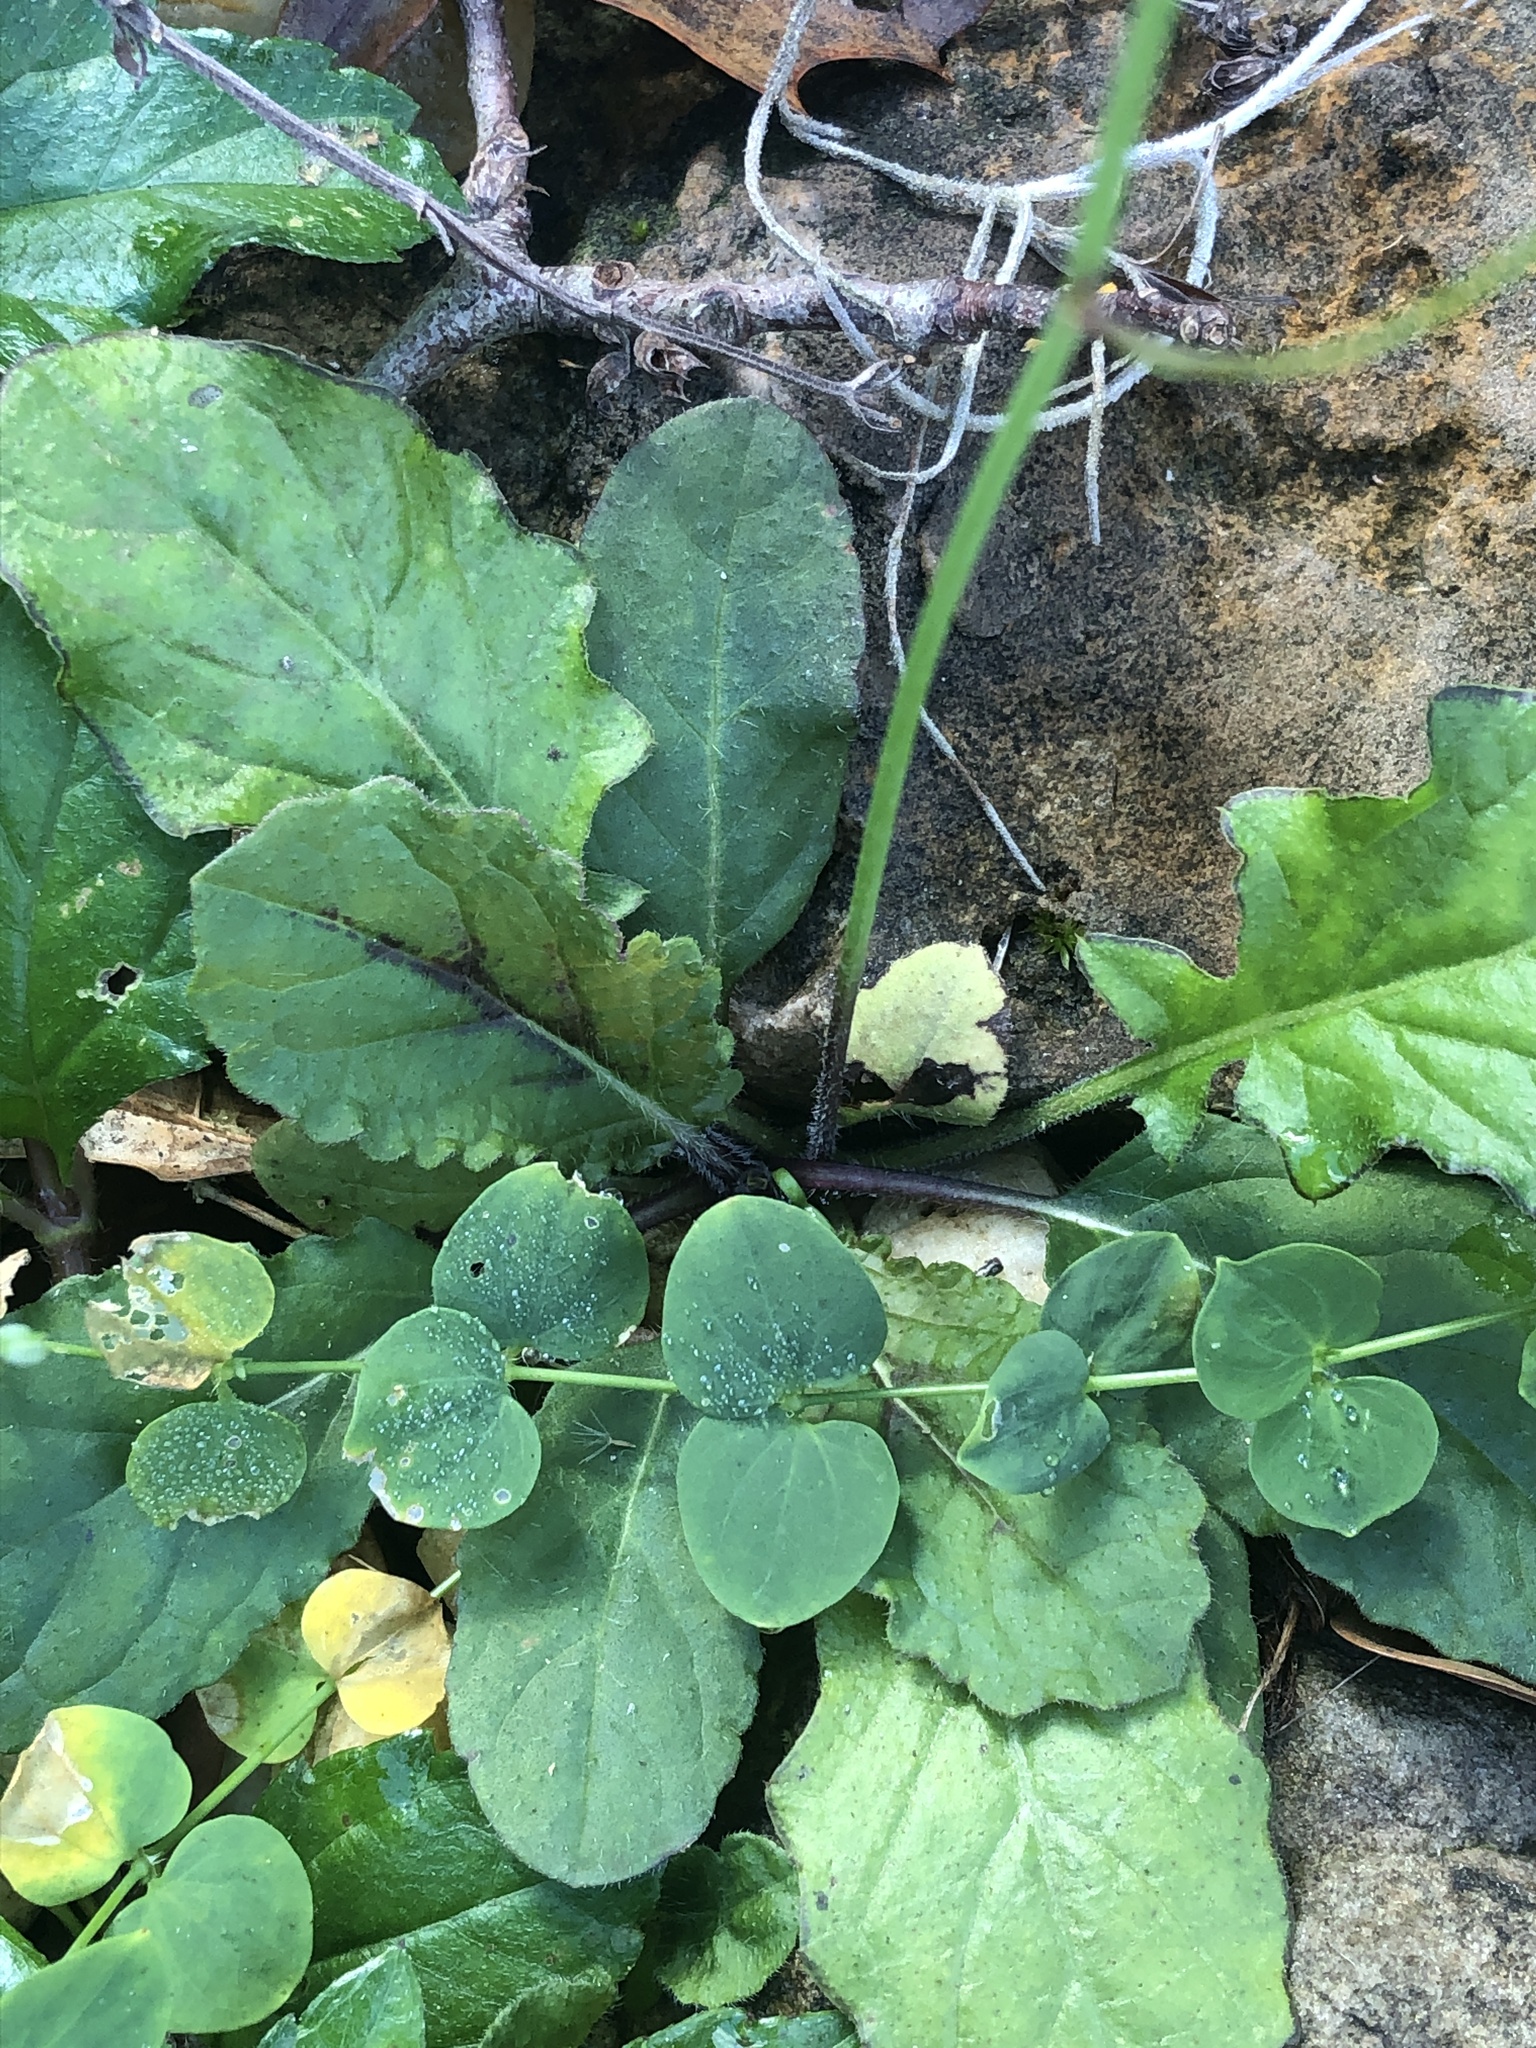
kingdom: Plantae
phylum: Tracheophyta
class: Magnoliopsida
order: Asterales
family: Asteraceae
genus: Youngia
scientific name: Youngia japonica
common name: Oriental false hawksbeard
